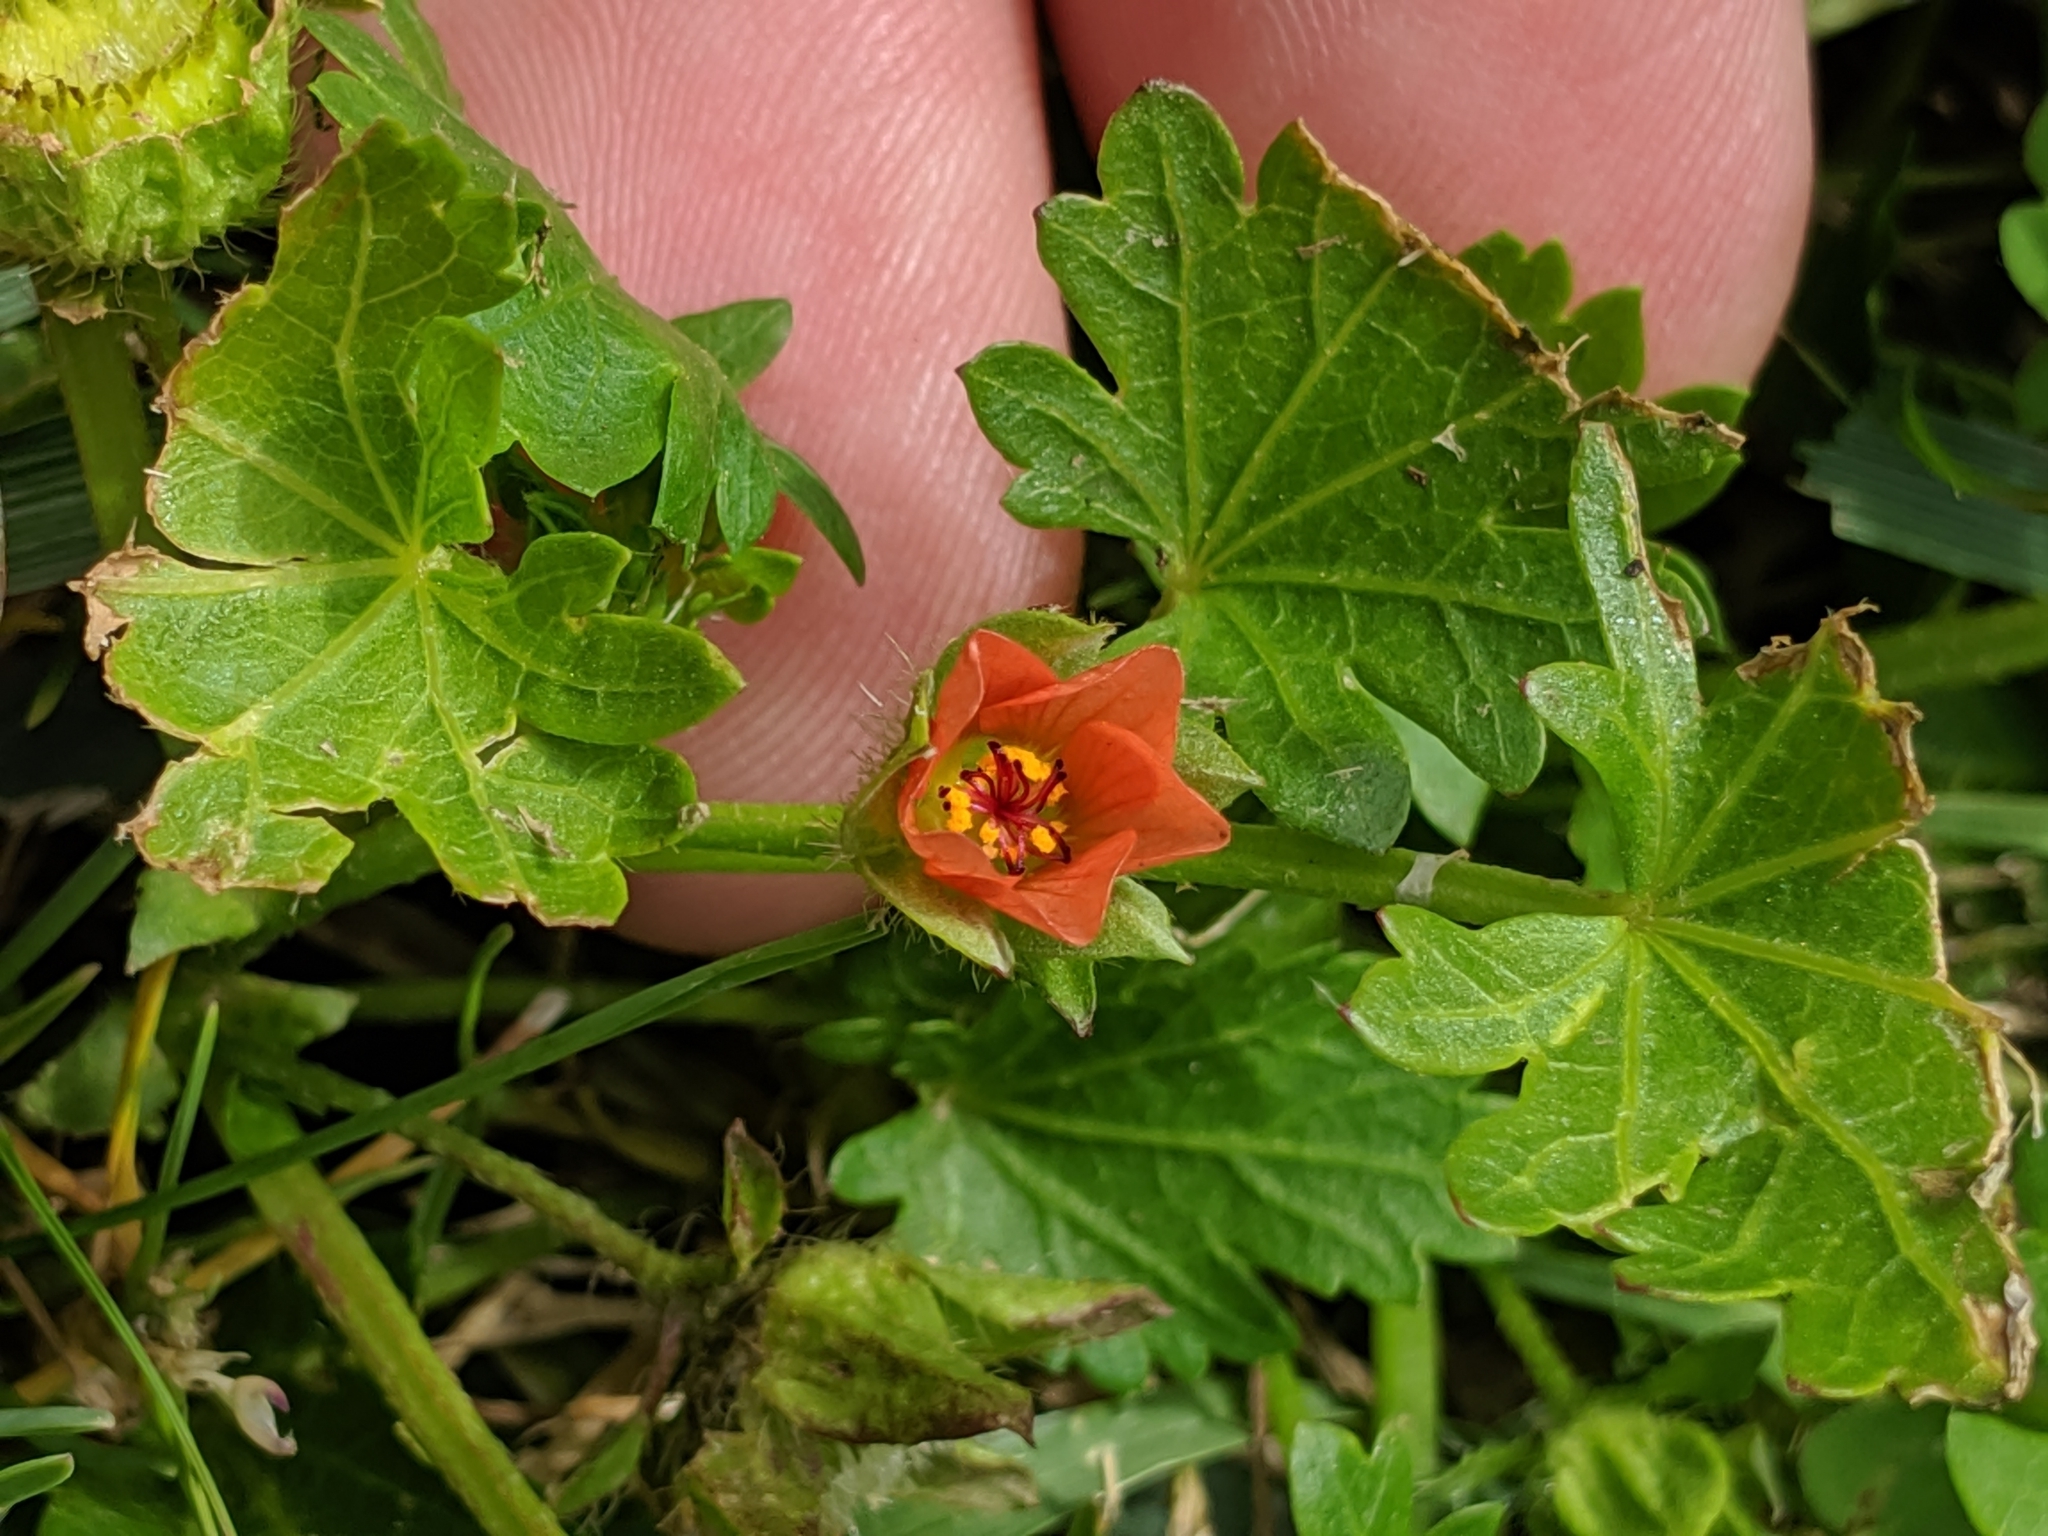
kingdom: Plantae
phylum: Tracheophyta
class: Magnoliopsida
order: Malvales
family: Malvaceae
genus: Modiola
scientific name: Modiola caroliniana
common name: Carolina bristlemallow
